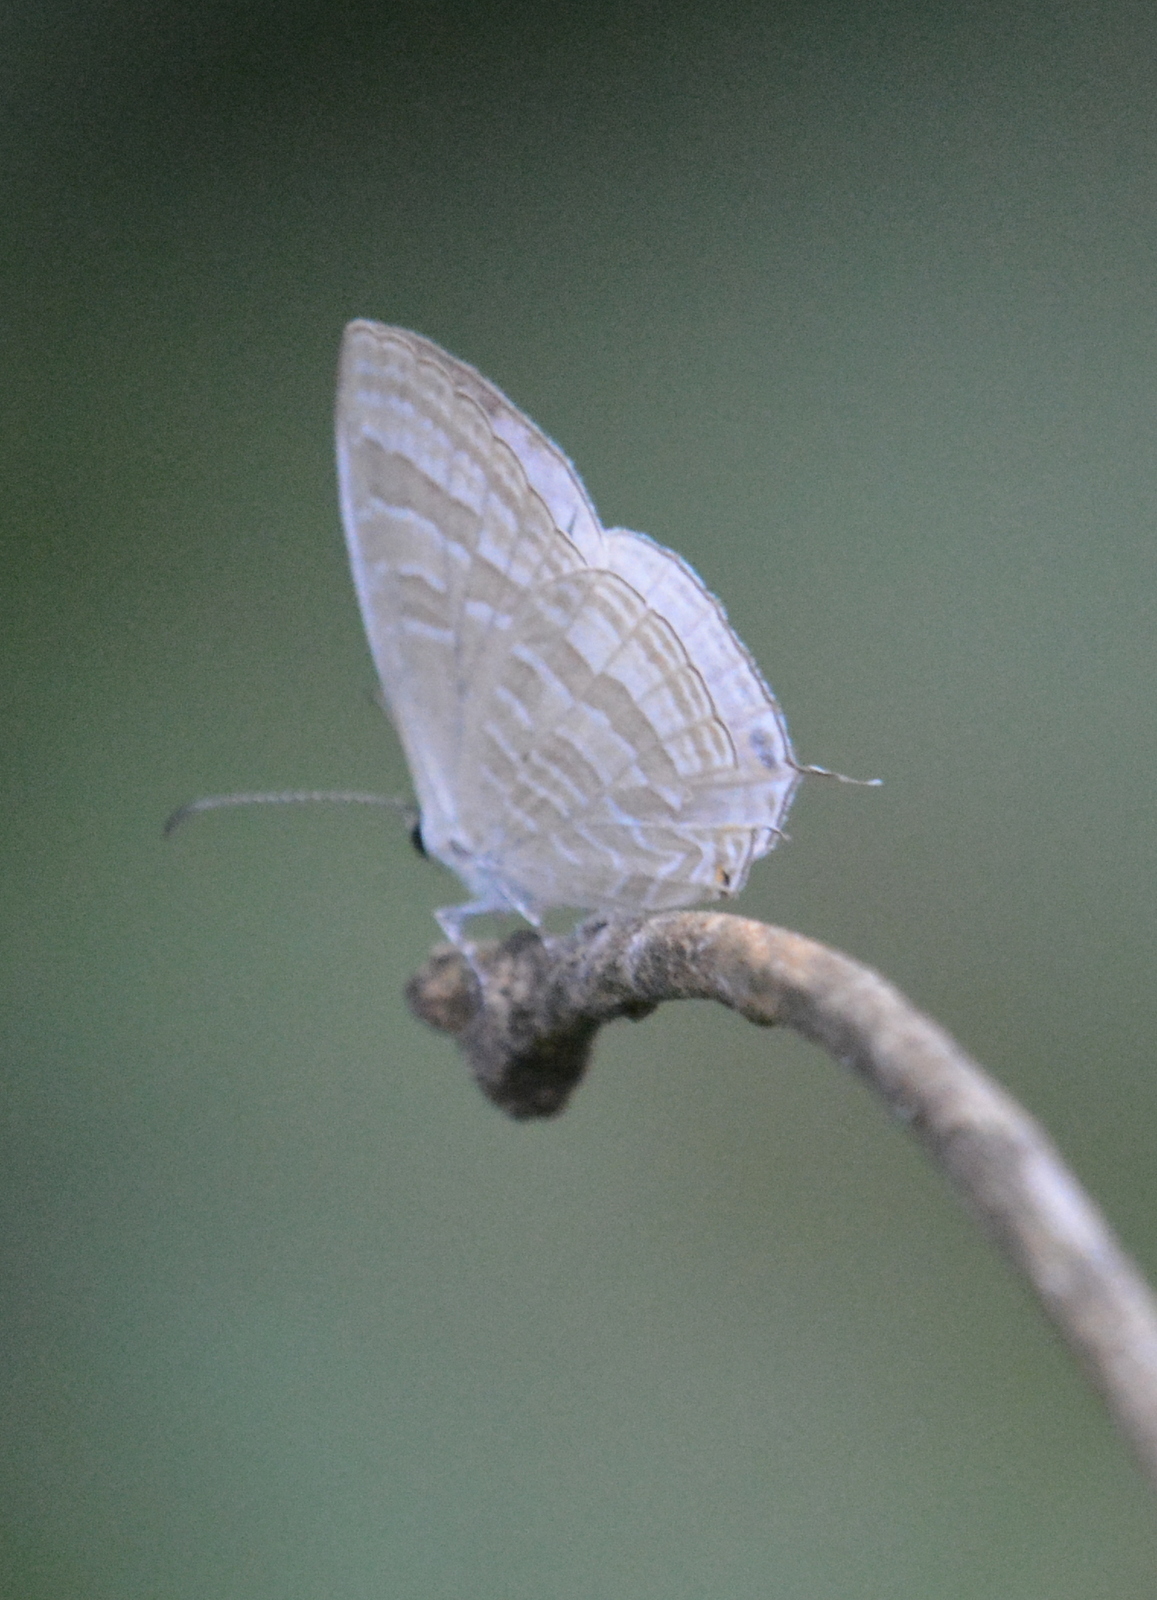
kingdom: Animalia
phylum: Arthropoda
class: Insecta
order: Lepidoptera
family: Lycaenidae
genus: Jamides
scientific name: Jamides celeno
